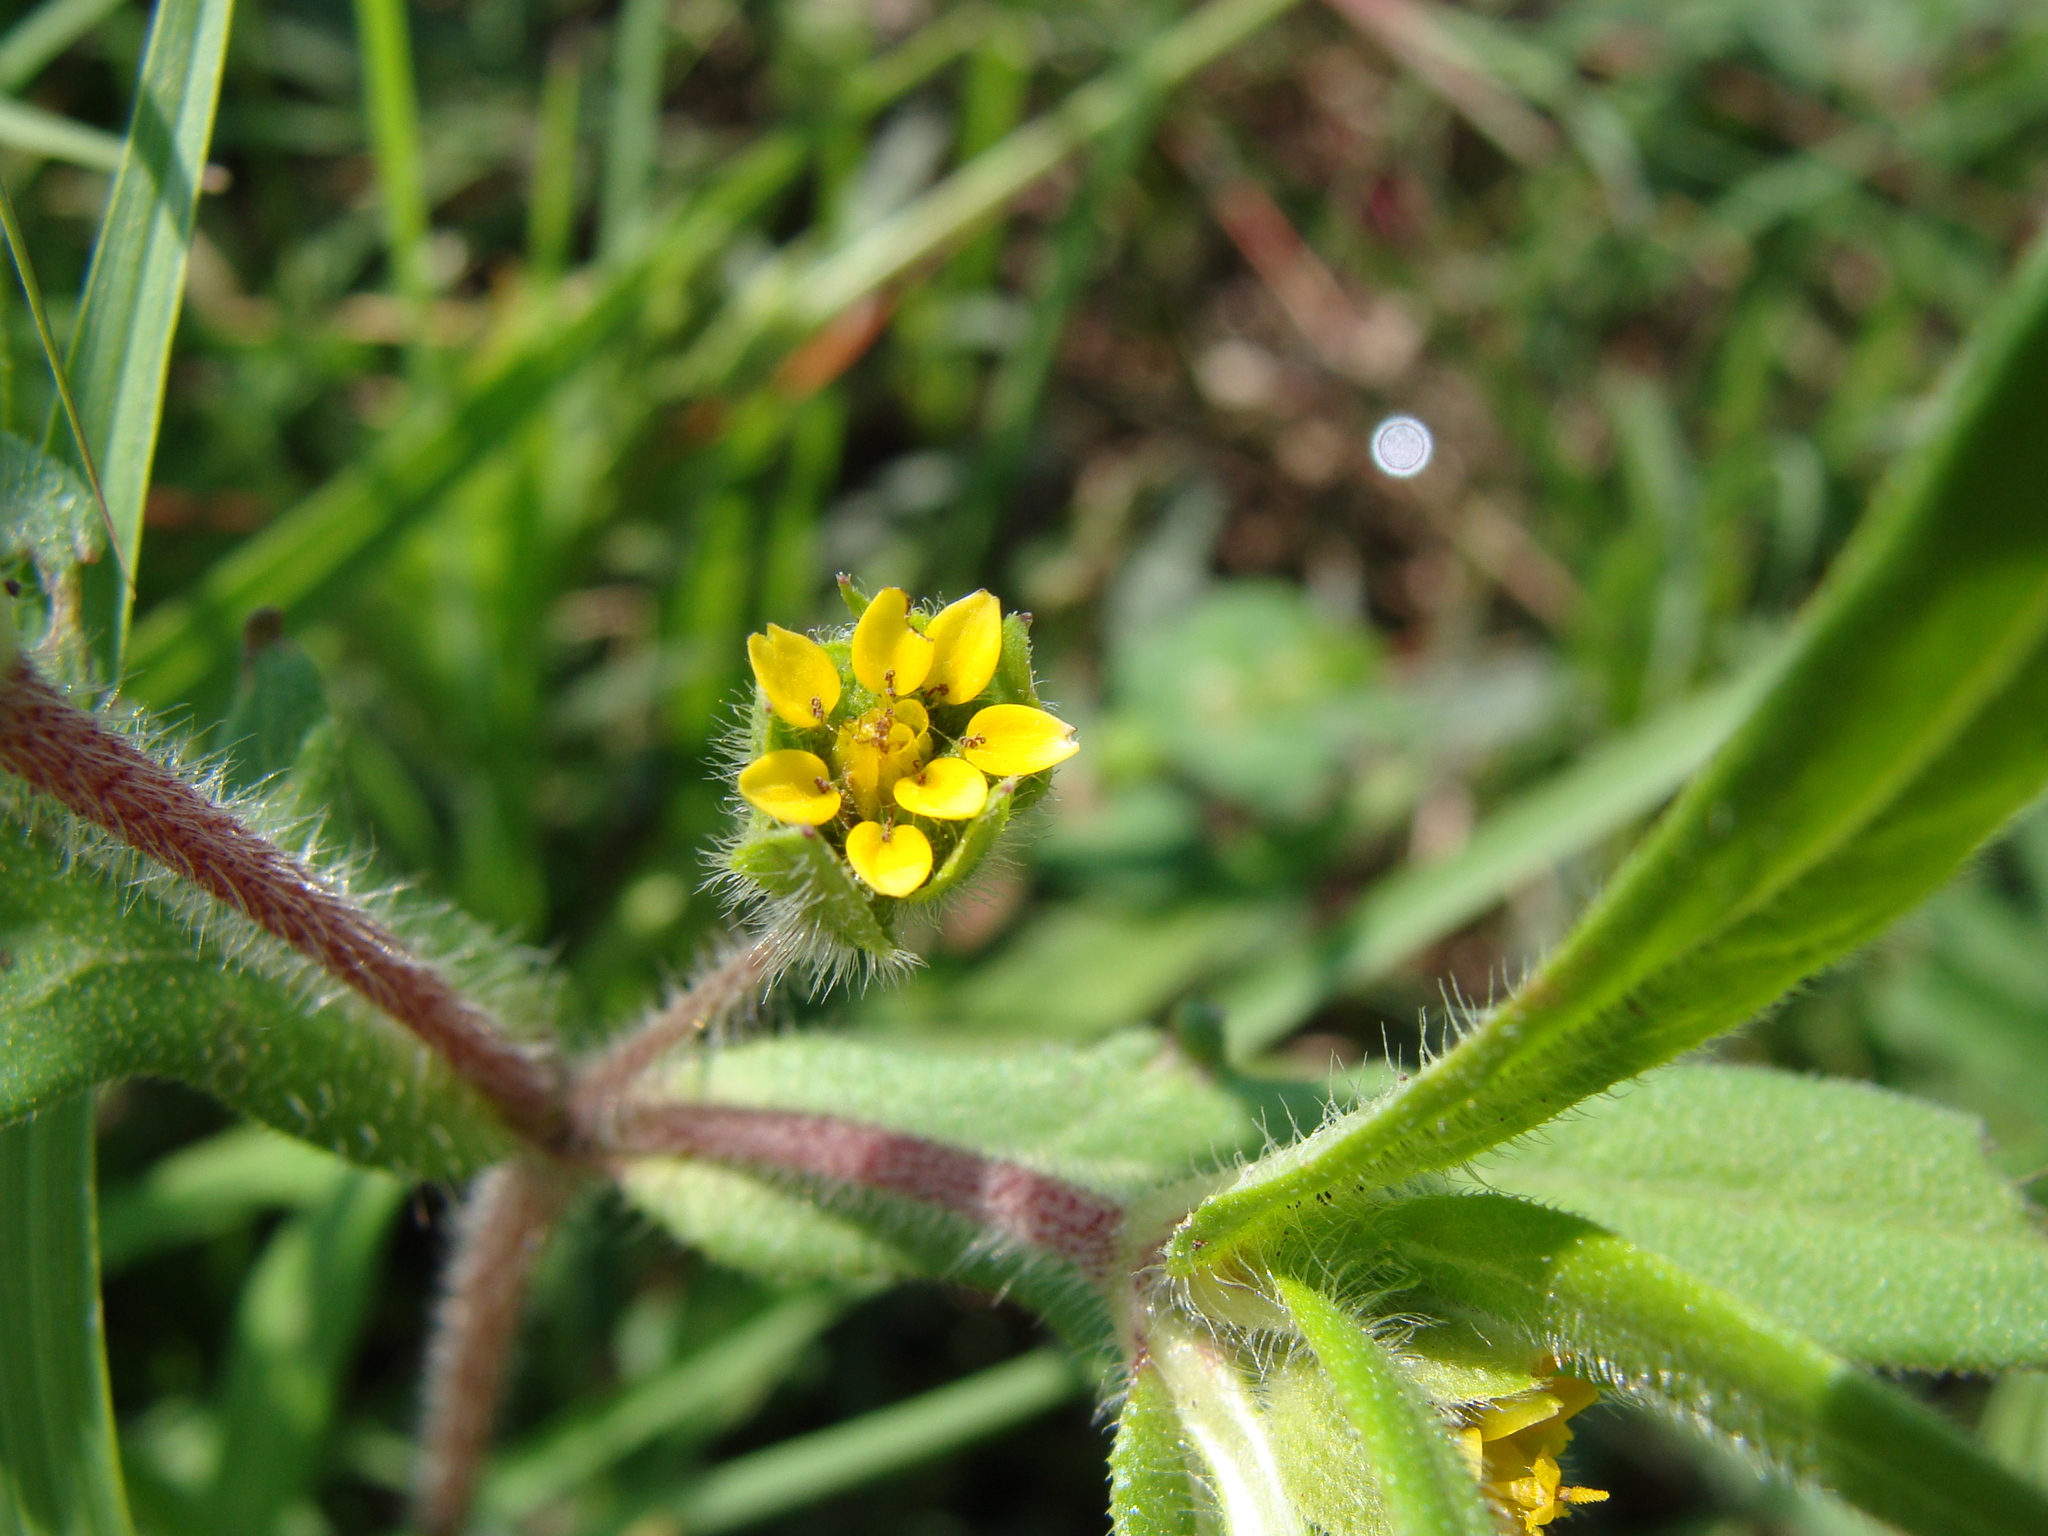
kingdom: Plantae
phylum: Tracheophyta
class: Magnoliopsida
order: Asterales
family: Asteraceae
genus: Melampodium
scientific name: Melampodium sericeum
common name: Rough blackfoot
